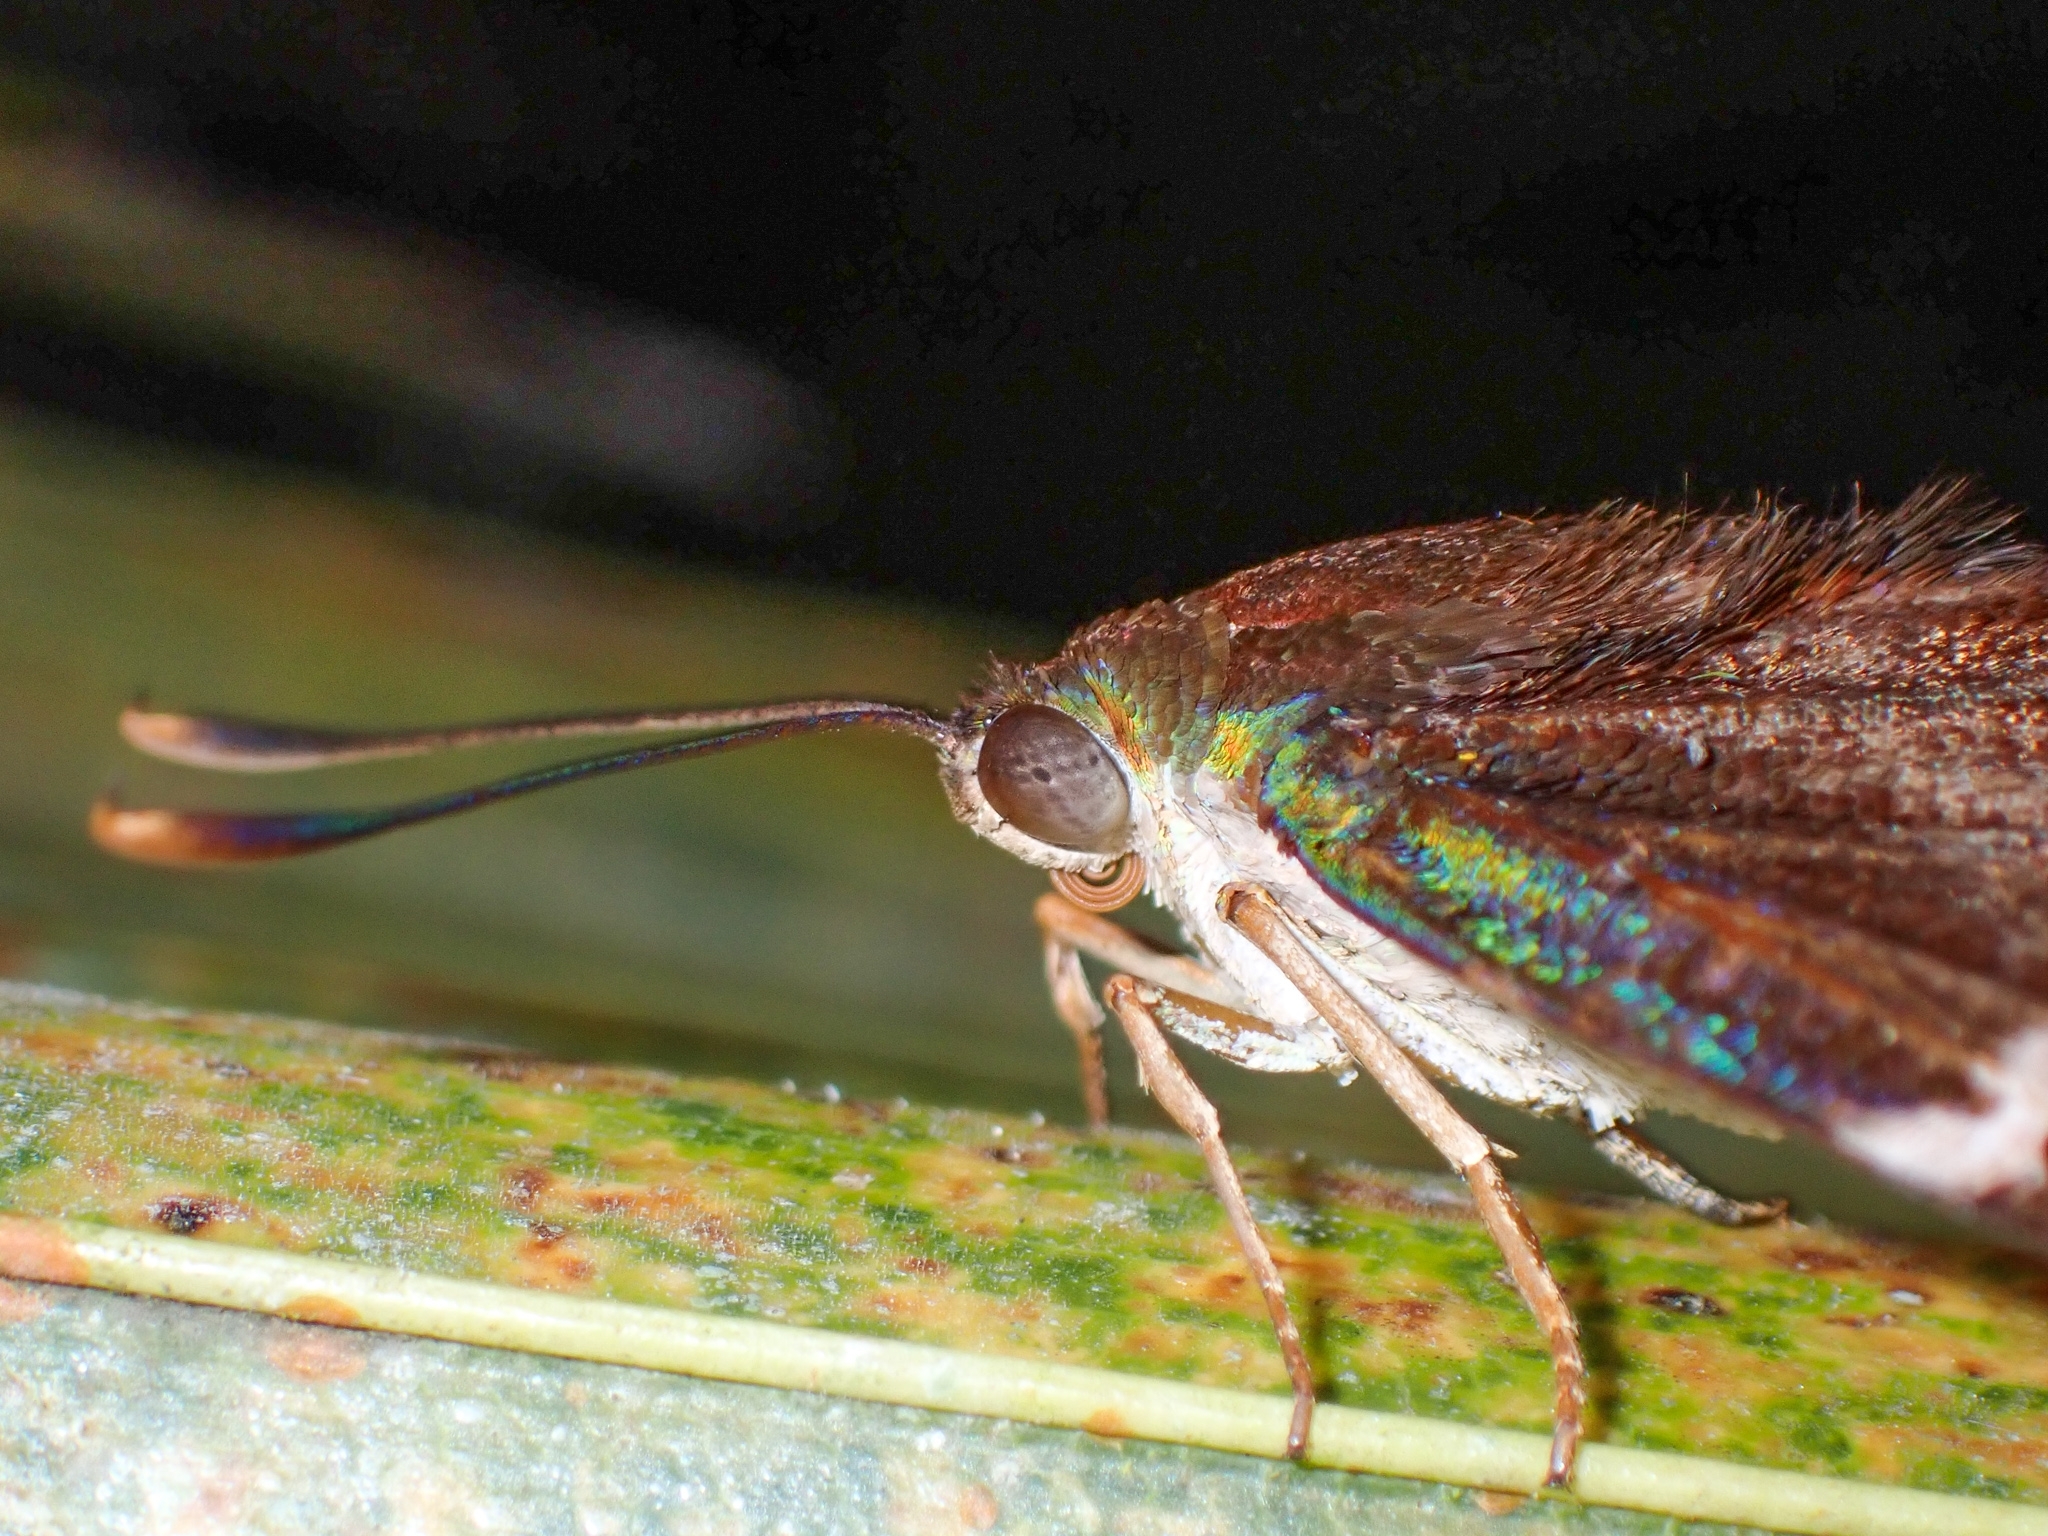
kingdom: Animalia
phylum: Arthropoda
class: Insecta
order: Lepidoptera
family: Castniidae
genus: Castniomera
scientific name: Castniomera atymnius
